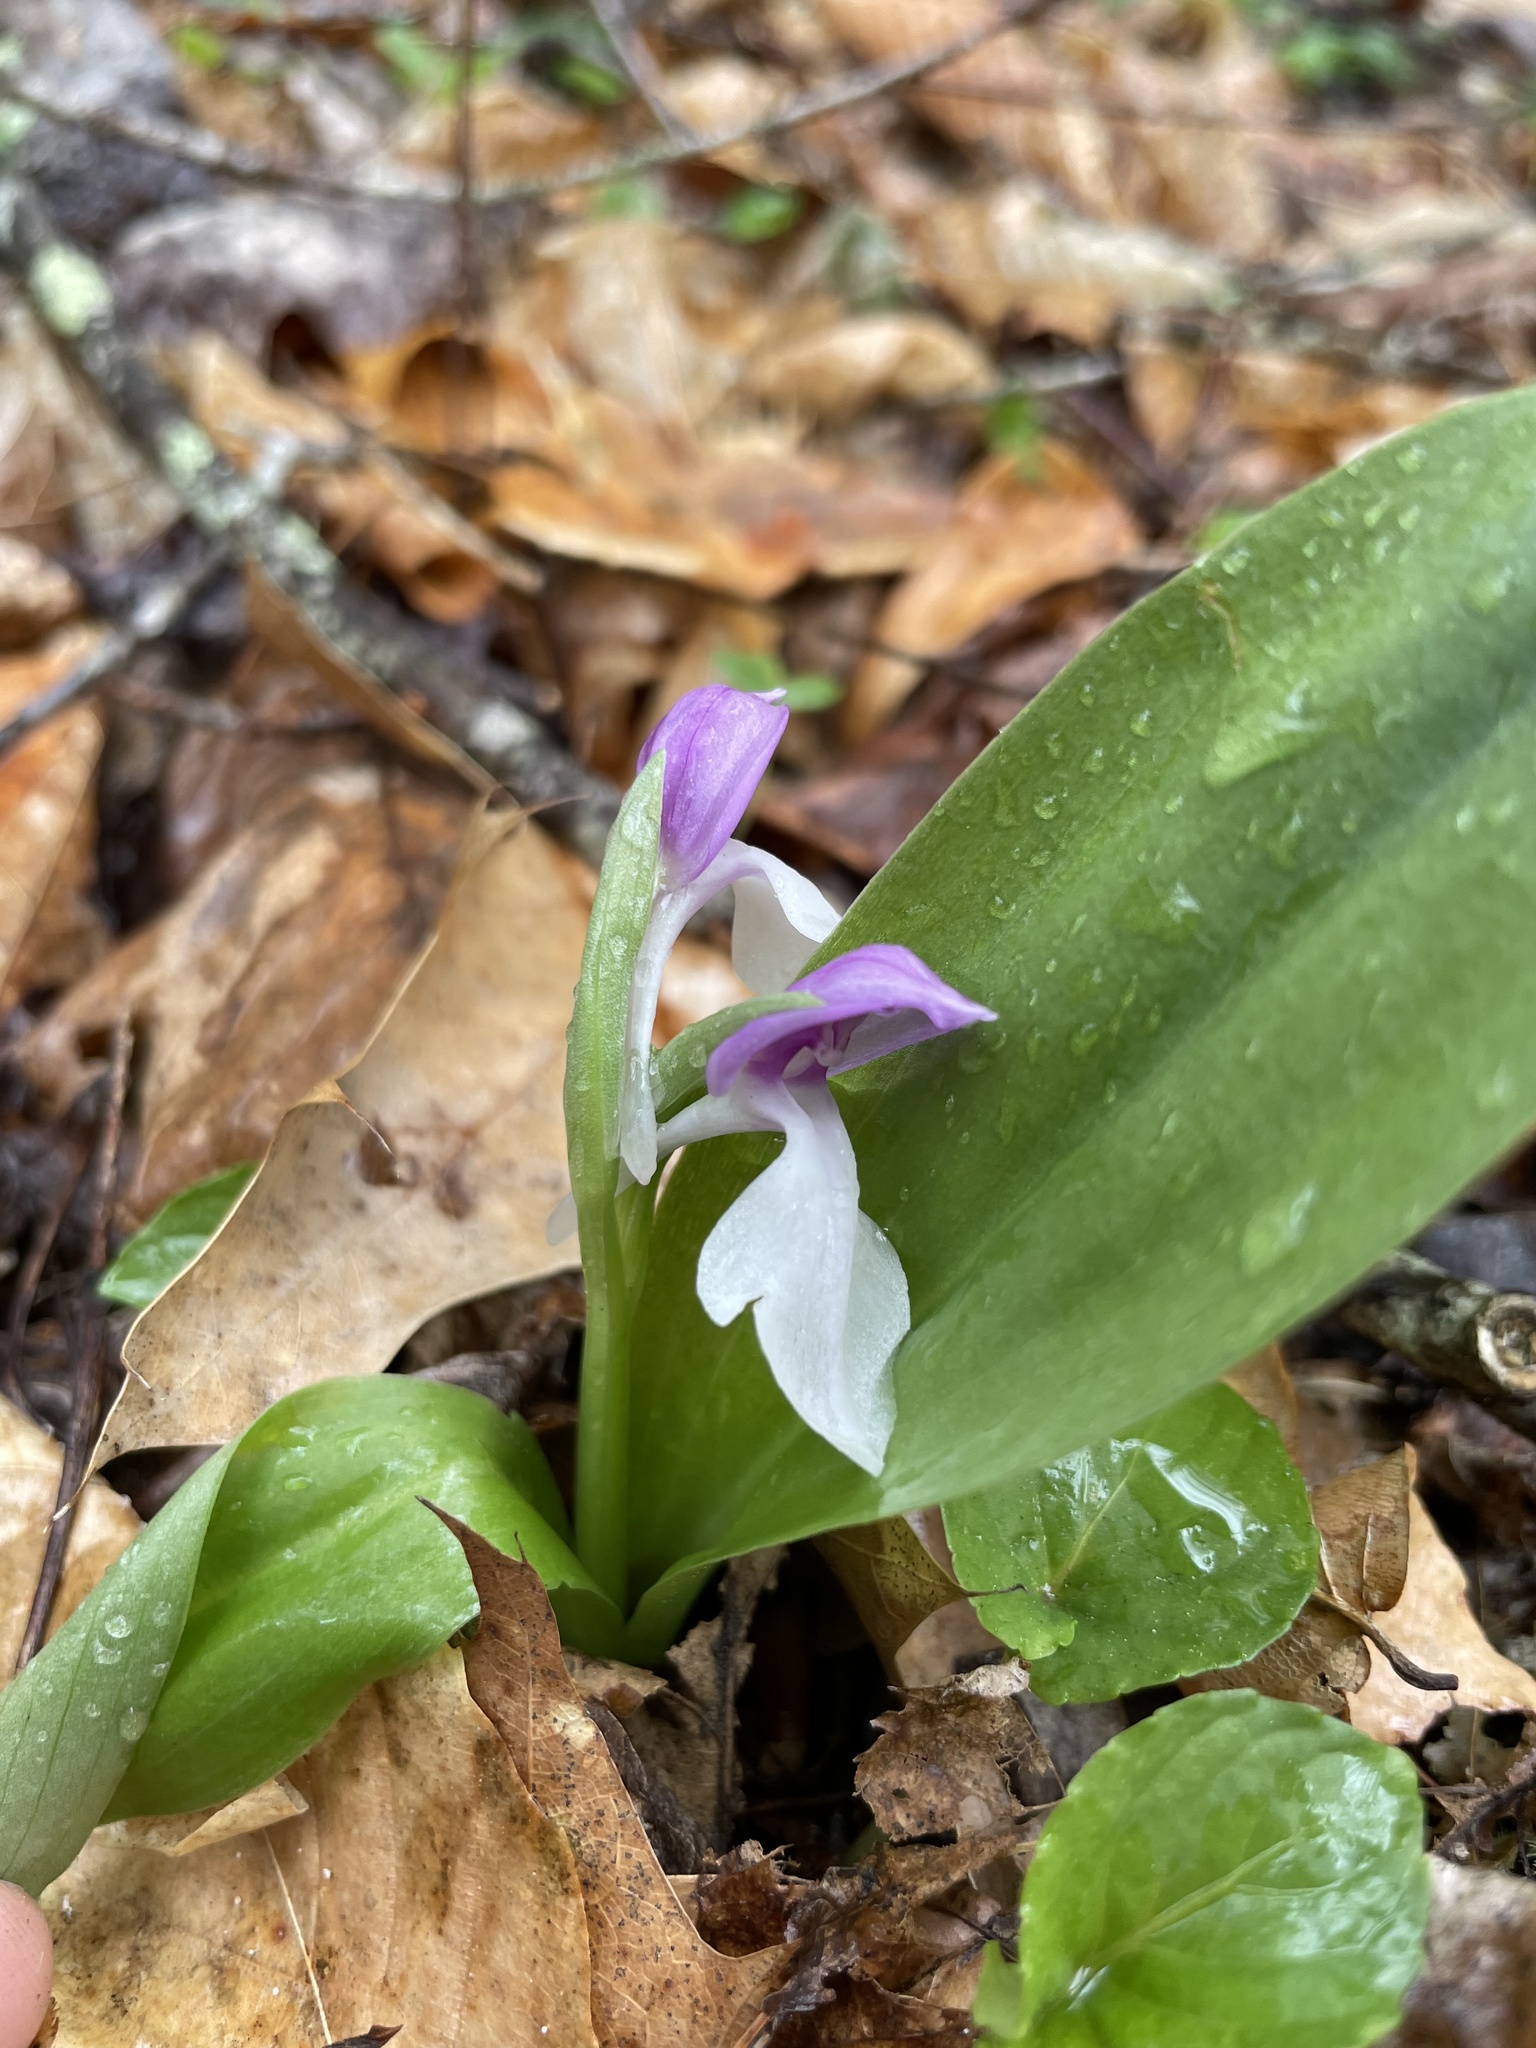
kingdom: Plantae
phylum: Tracheophyta
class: Liliopsida
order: Asparagales
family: Orchidaceae
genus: Galearis
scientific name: Galearis spectabilis
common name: Purple-hooded orchis
